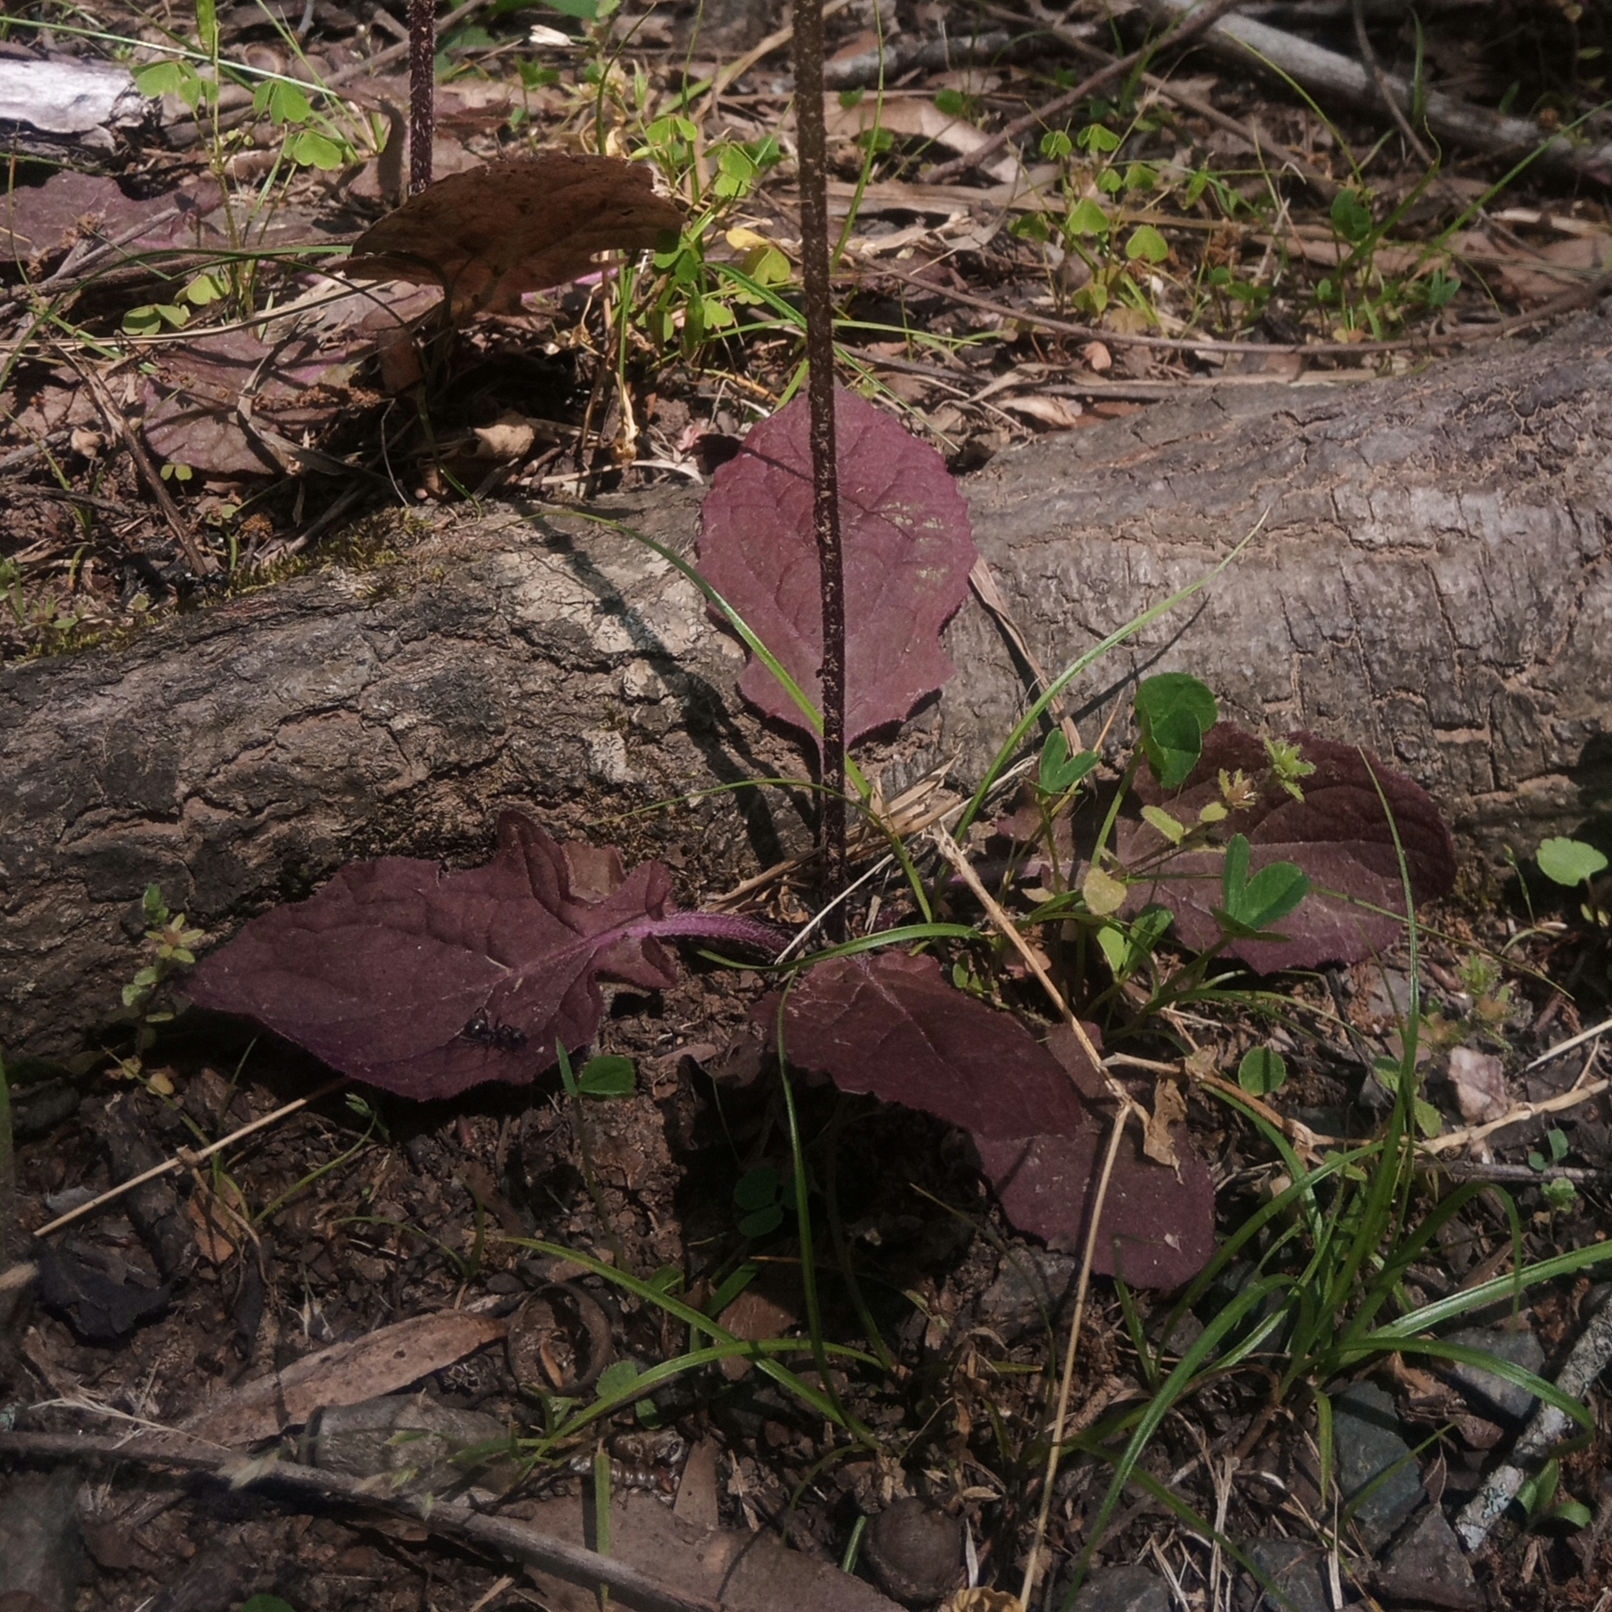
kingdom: Plantae
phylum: Tracheophyta
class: Magnoliopsida
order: Lamiales
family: Lamiaceae
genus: Salvia
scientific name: Salvia lyrata
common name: Cancerweed
